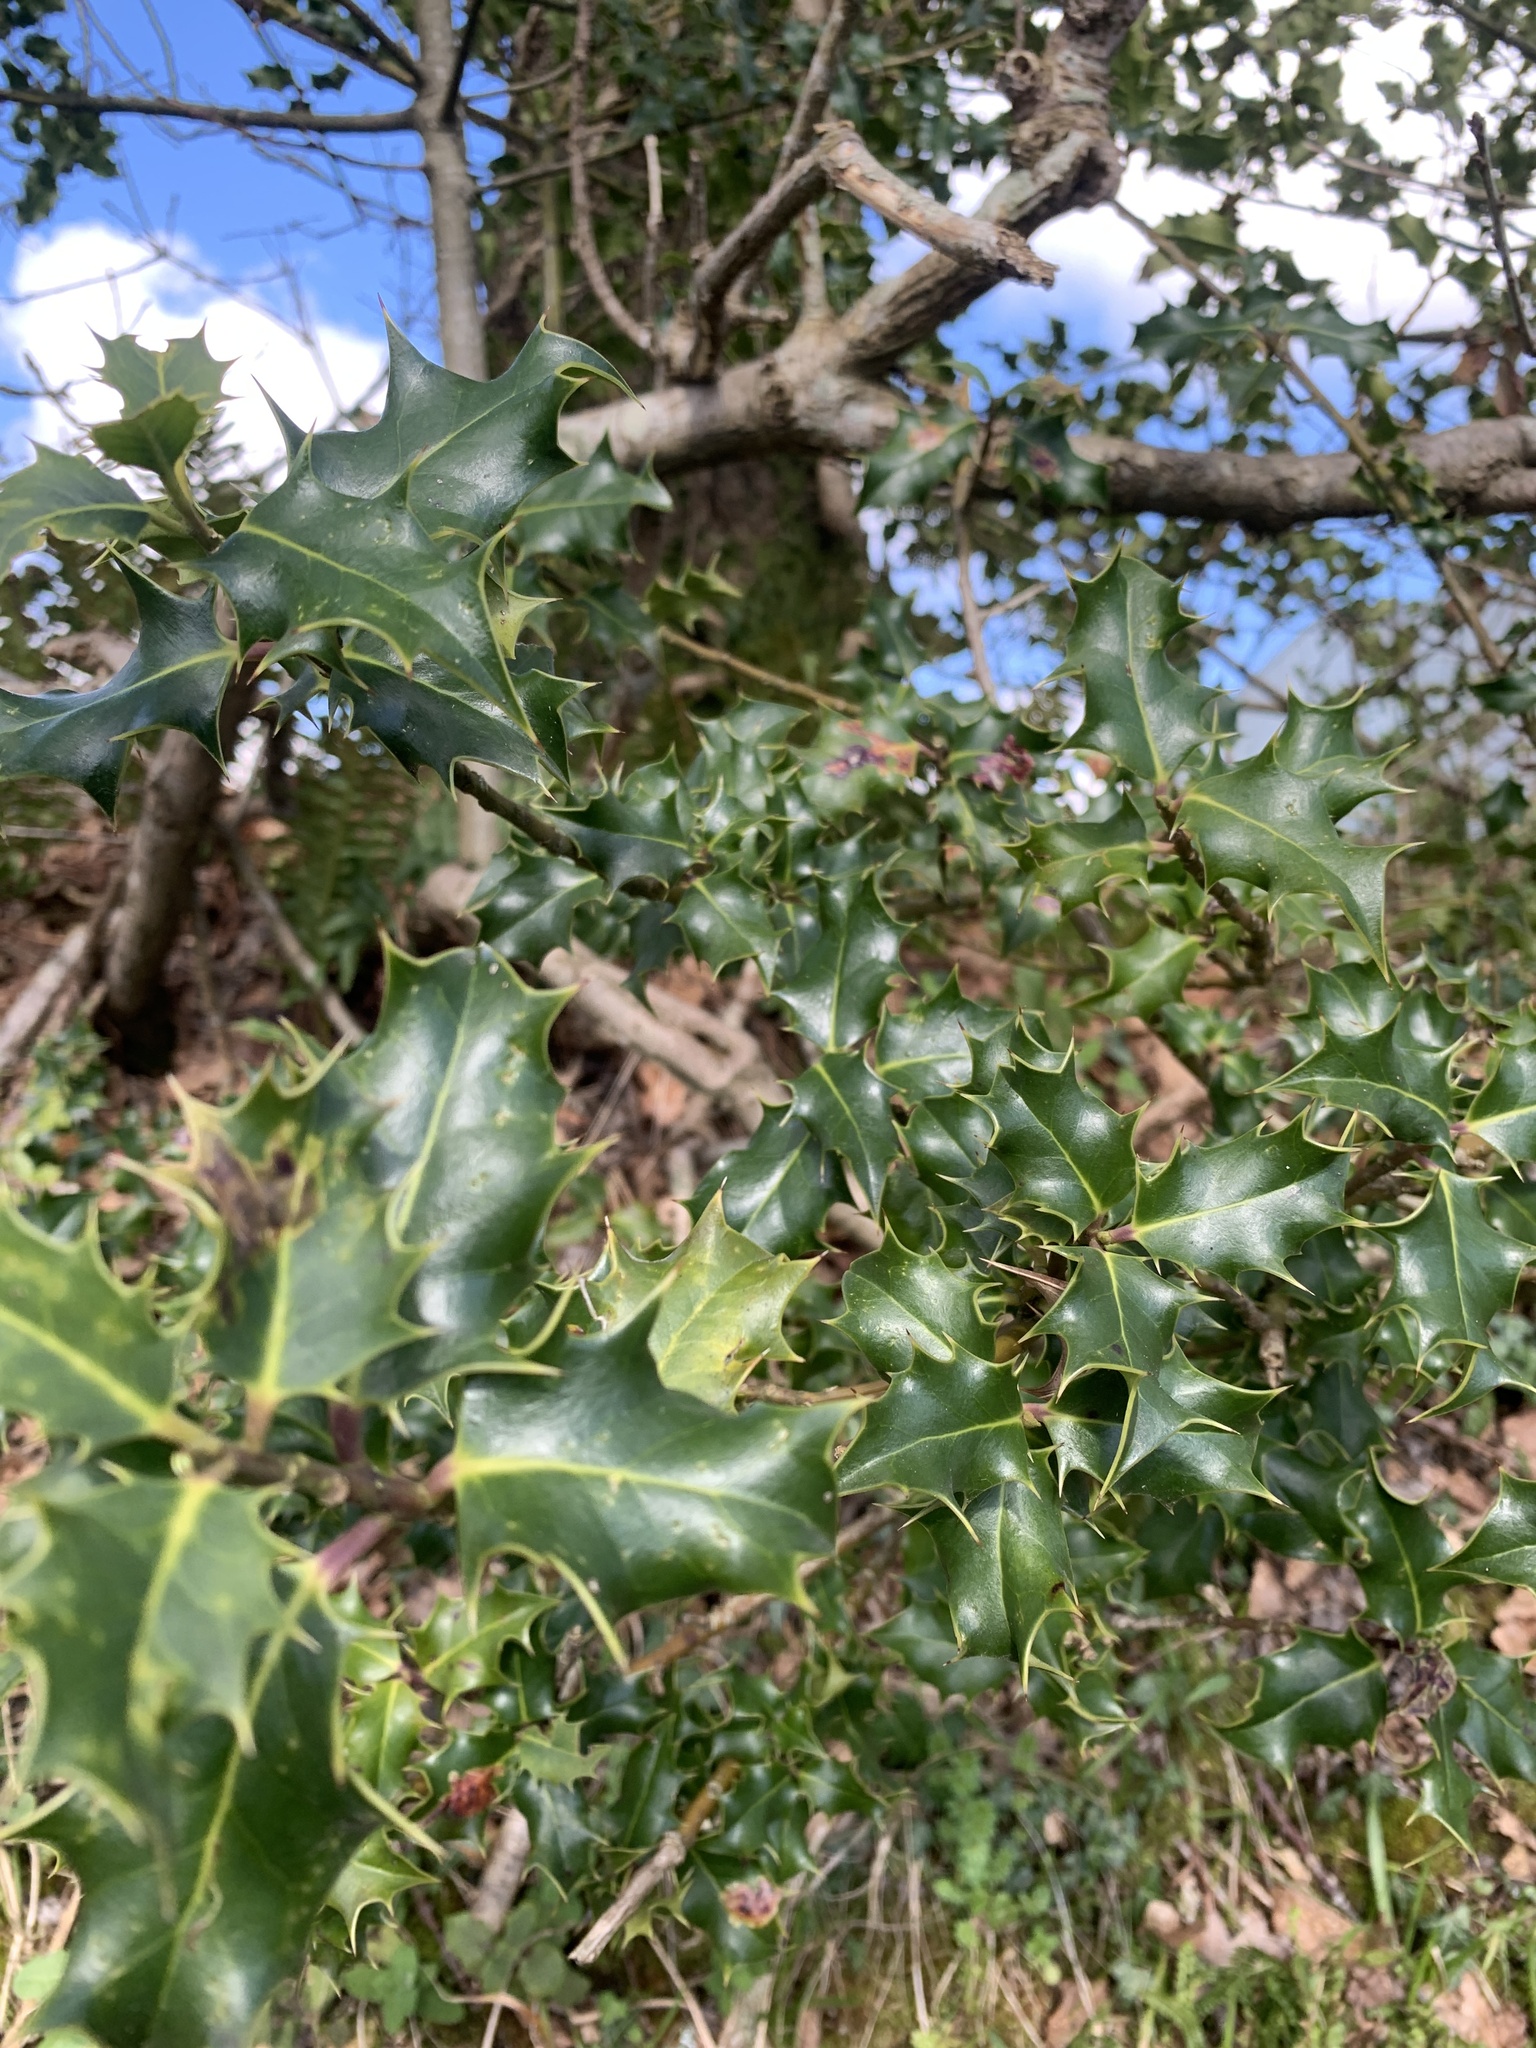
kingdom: Plantae
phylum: Tracheophyta
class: Magnoliopsida
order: Aquifoliales
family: Aquifoliaceae
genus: Ilex
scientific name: Ilex aquifolium
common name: English holly
